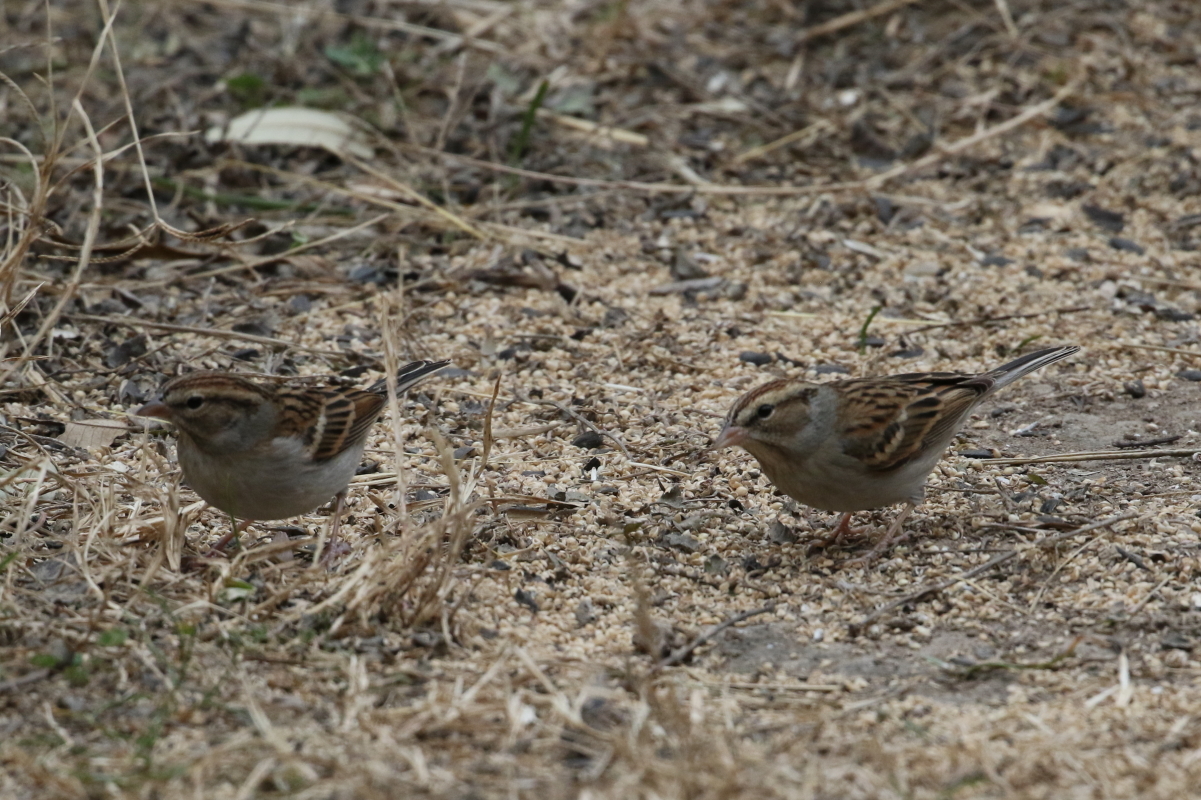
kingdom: Animalia
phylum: Chordata
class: Aves
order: Passeriformes
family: Passerellidae
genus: Spizella
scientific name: Spizella passerina
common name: Chipping sparrow
